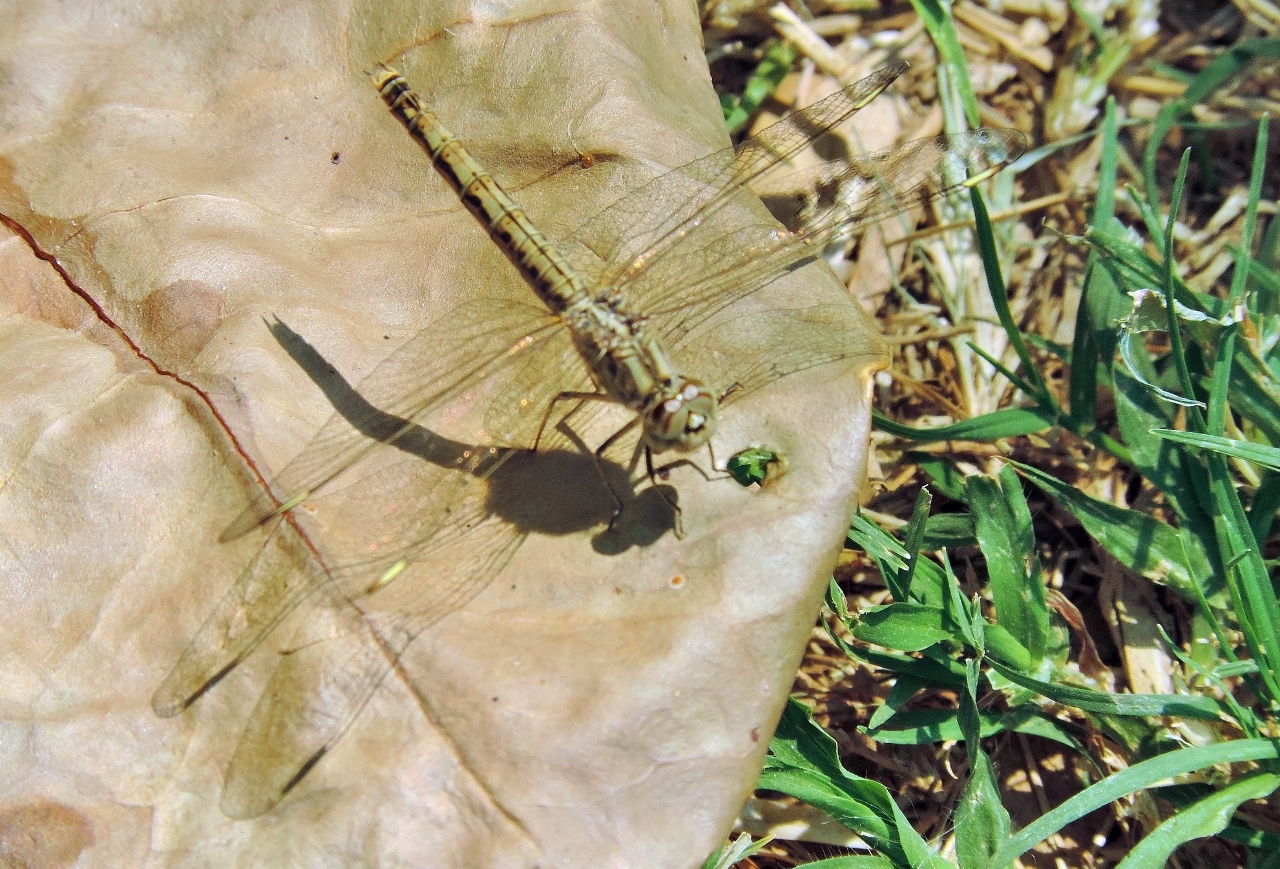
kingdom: Animalia
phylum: Arthropoda
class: Insecta
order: Odonata
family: Libellulidae
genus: Brachythemis
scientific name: Brachythemis leucosticta
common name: Banded groundling
